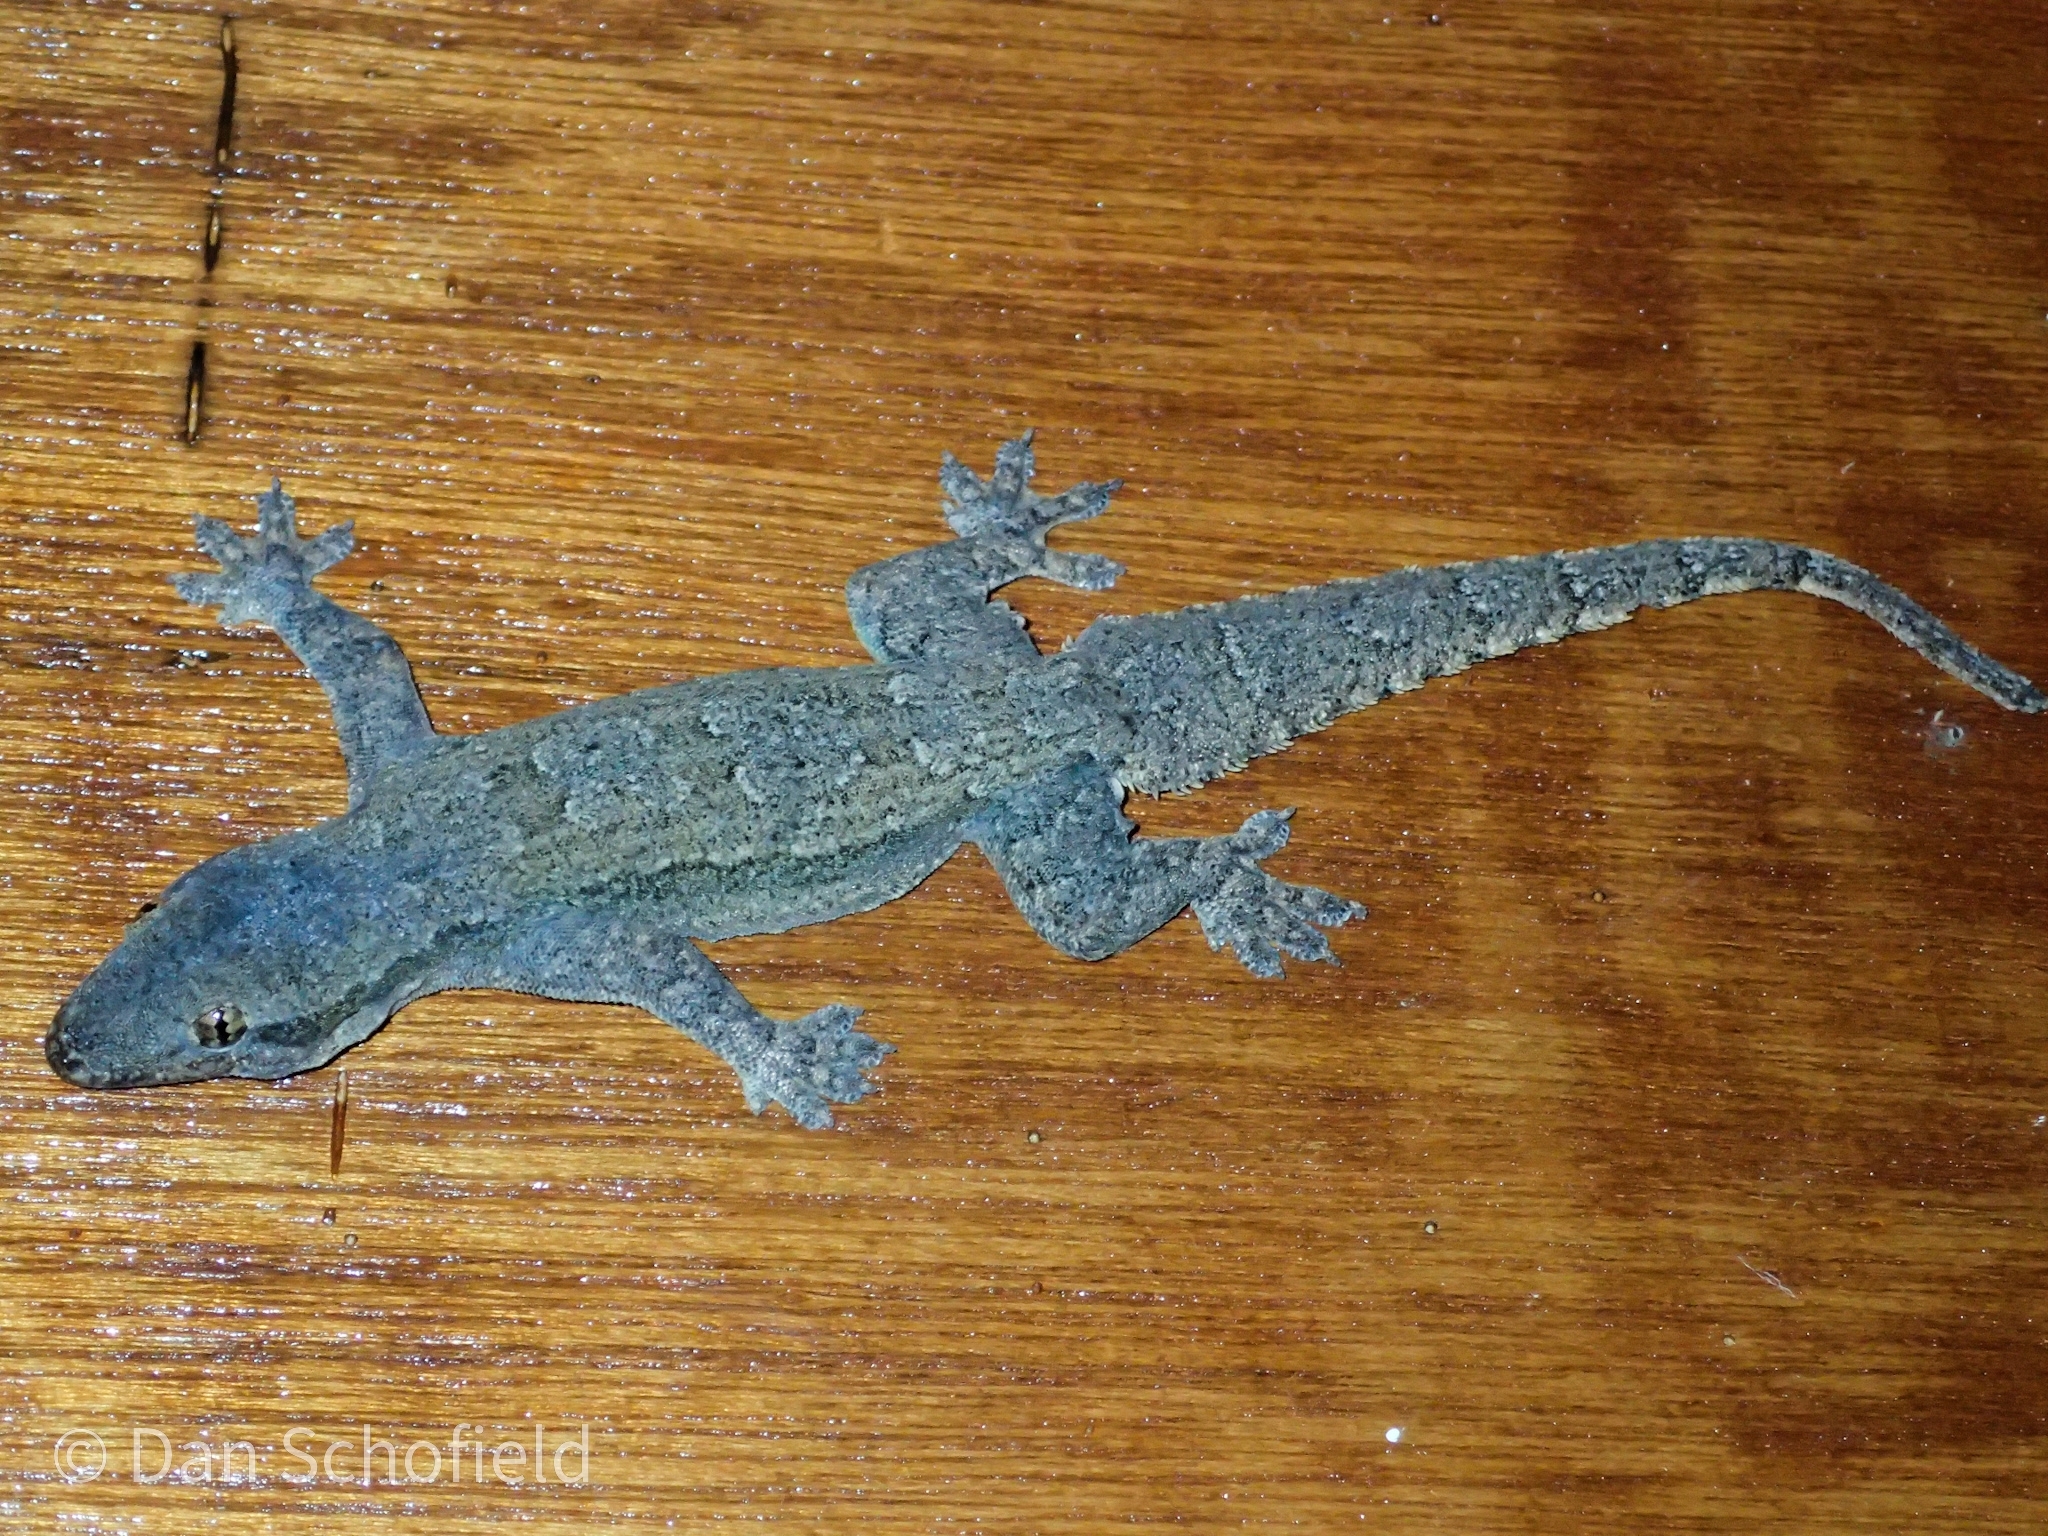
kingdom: Animalia
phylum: Chordata
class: Squamata
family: Gekkonidae
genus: Hemidactylus
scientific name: Hemidactylus platyurus
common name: Flat-tailed house gecko
